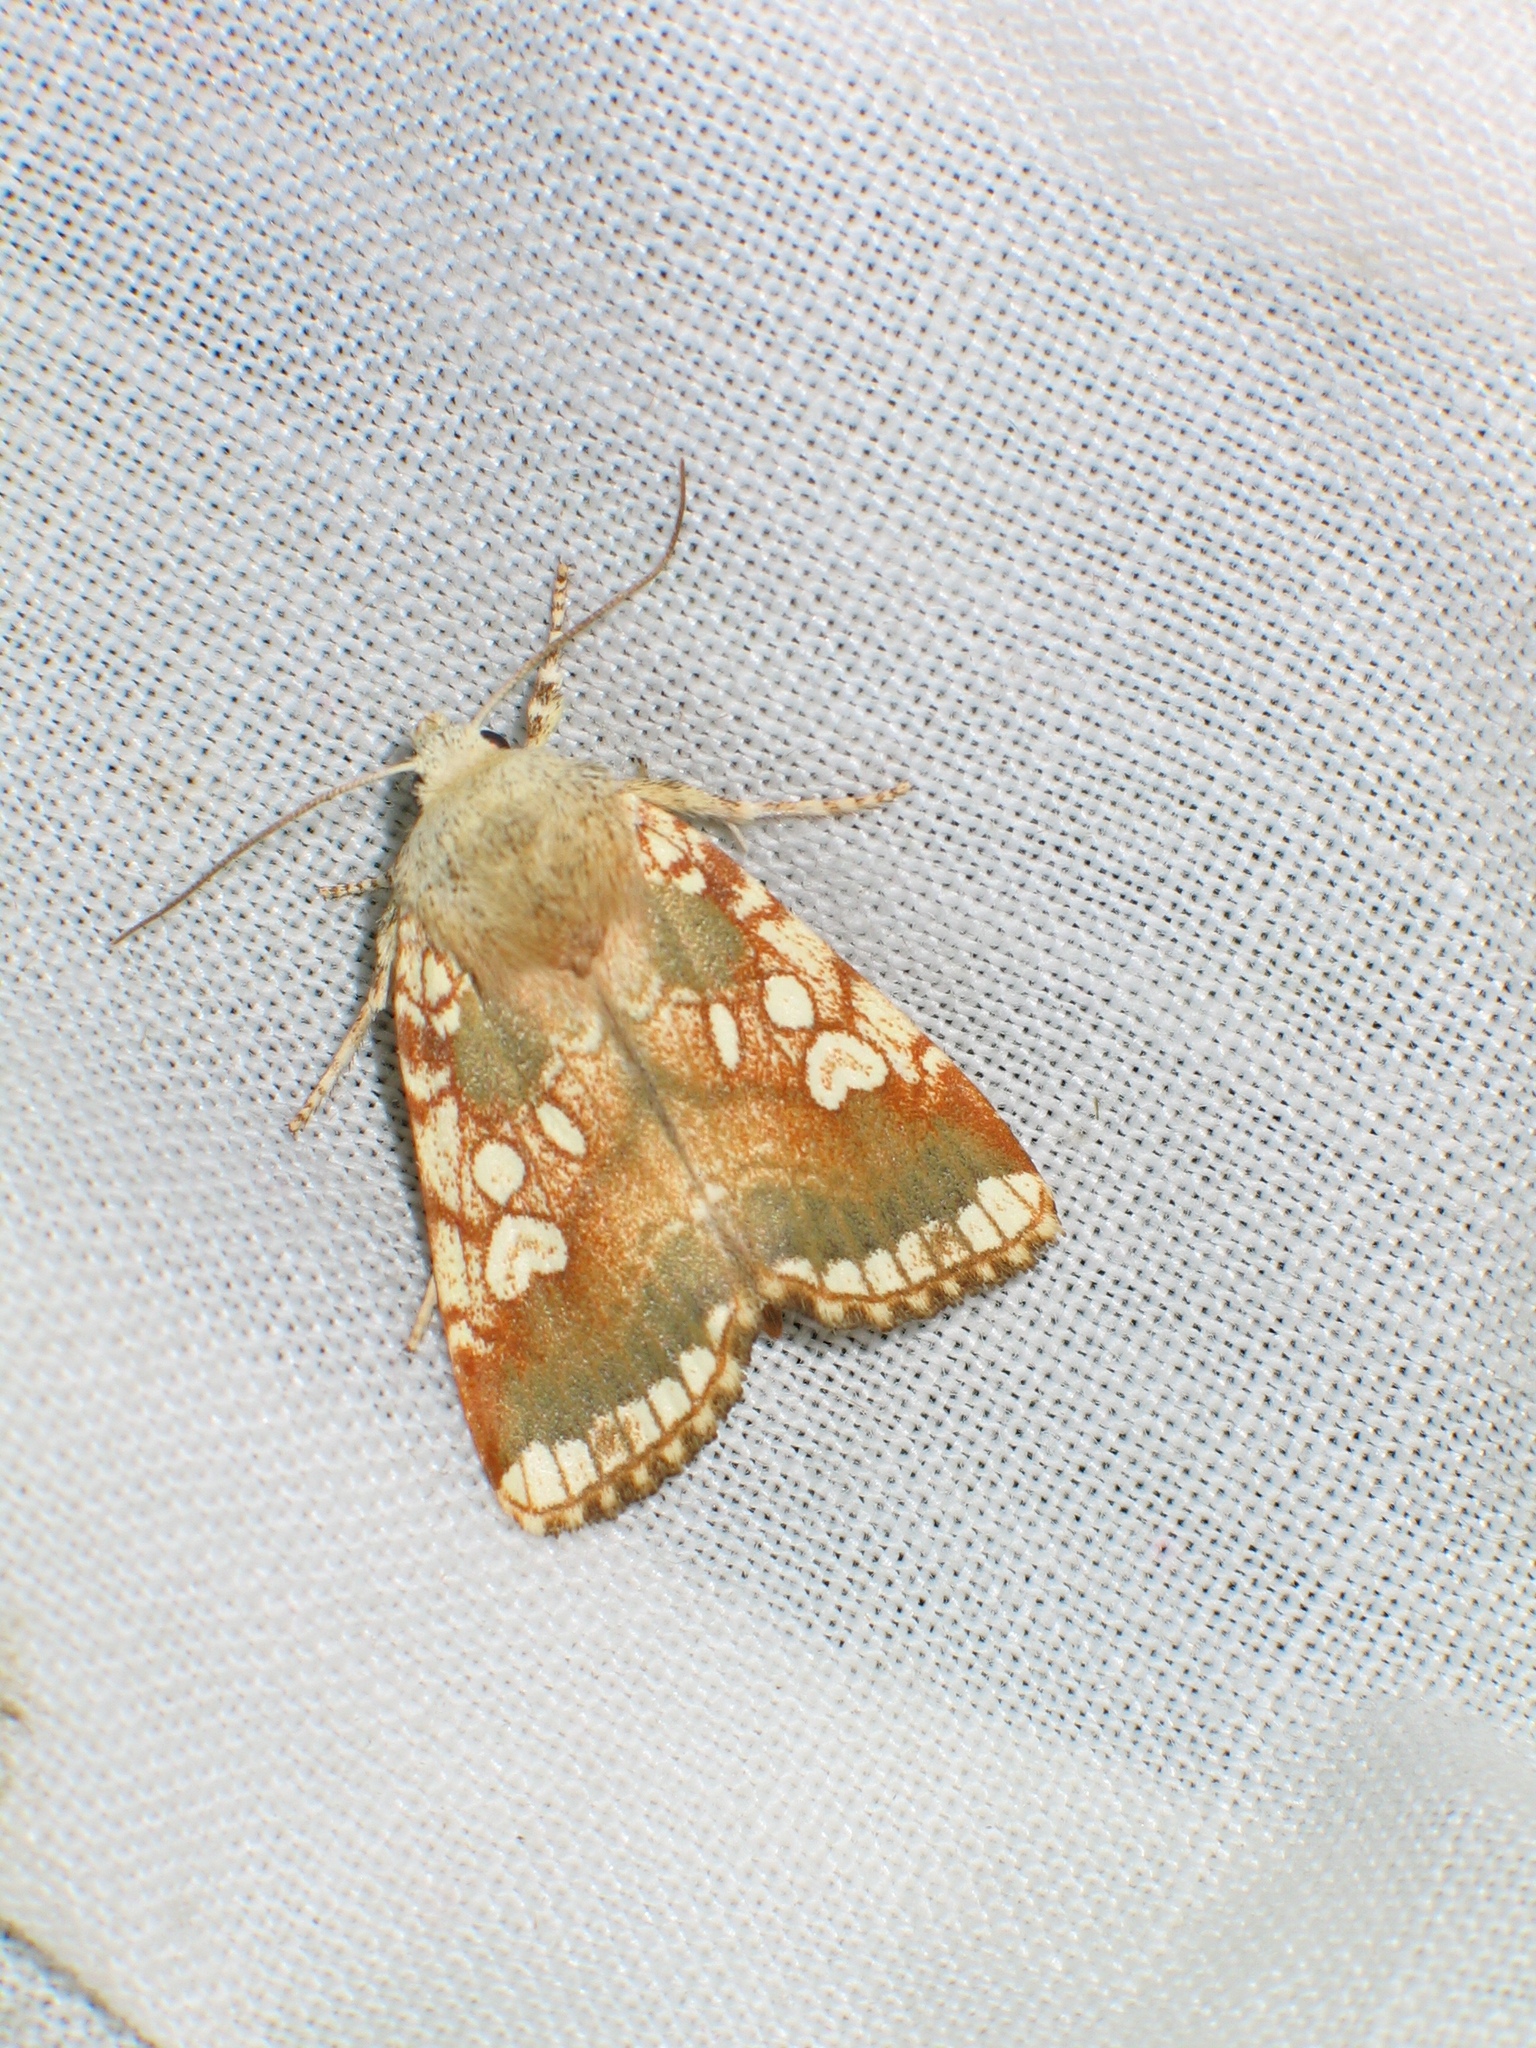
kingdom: Animalia
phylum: Arthropoda
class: Insecta
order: Lepidoptera
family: Noctuidae
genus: Dicycla
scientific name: Dicycla oo
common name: Heart moth
